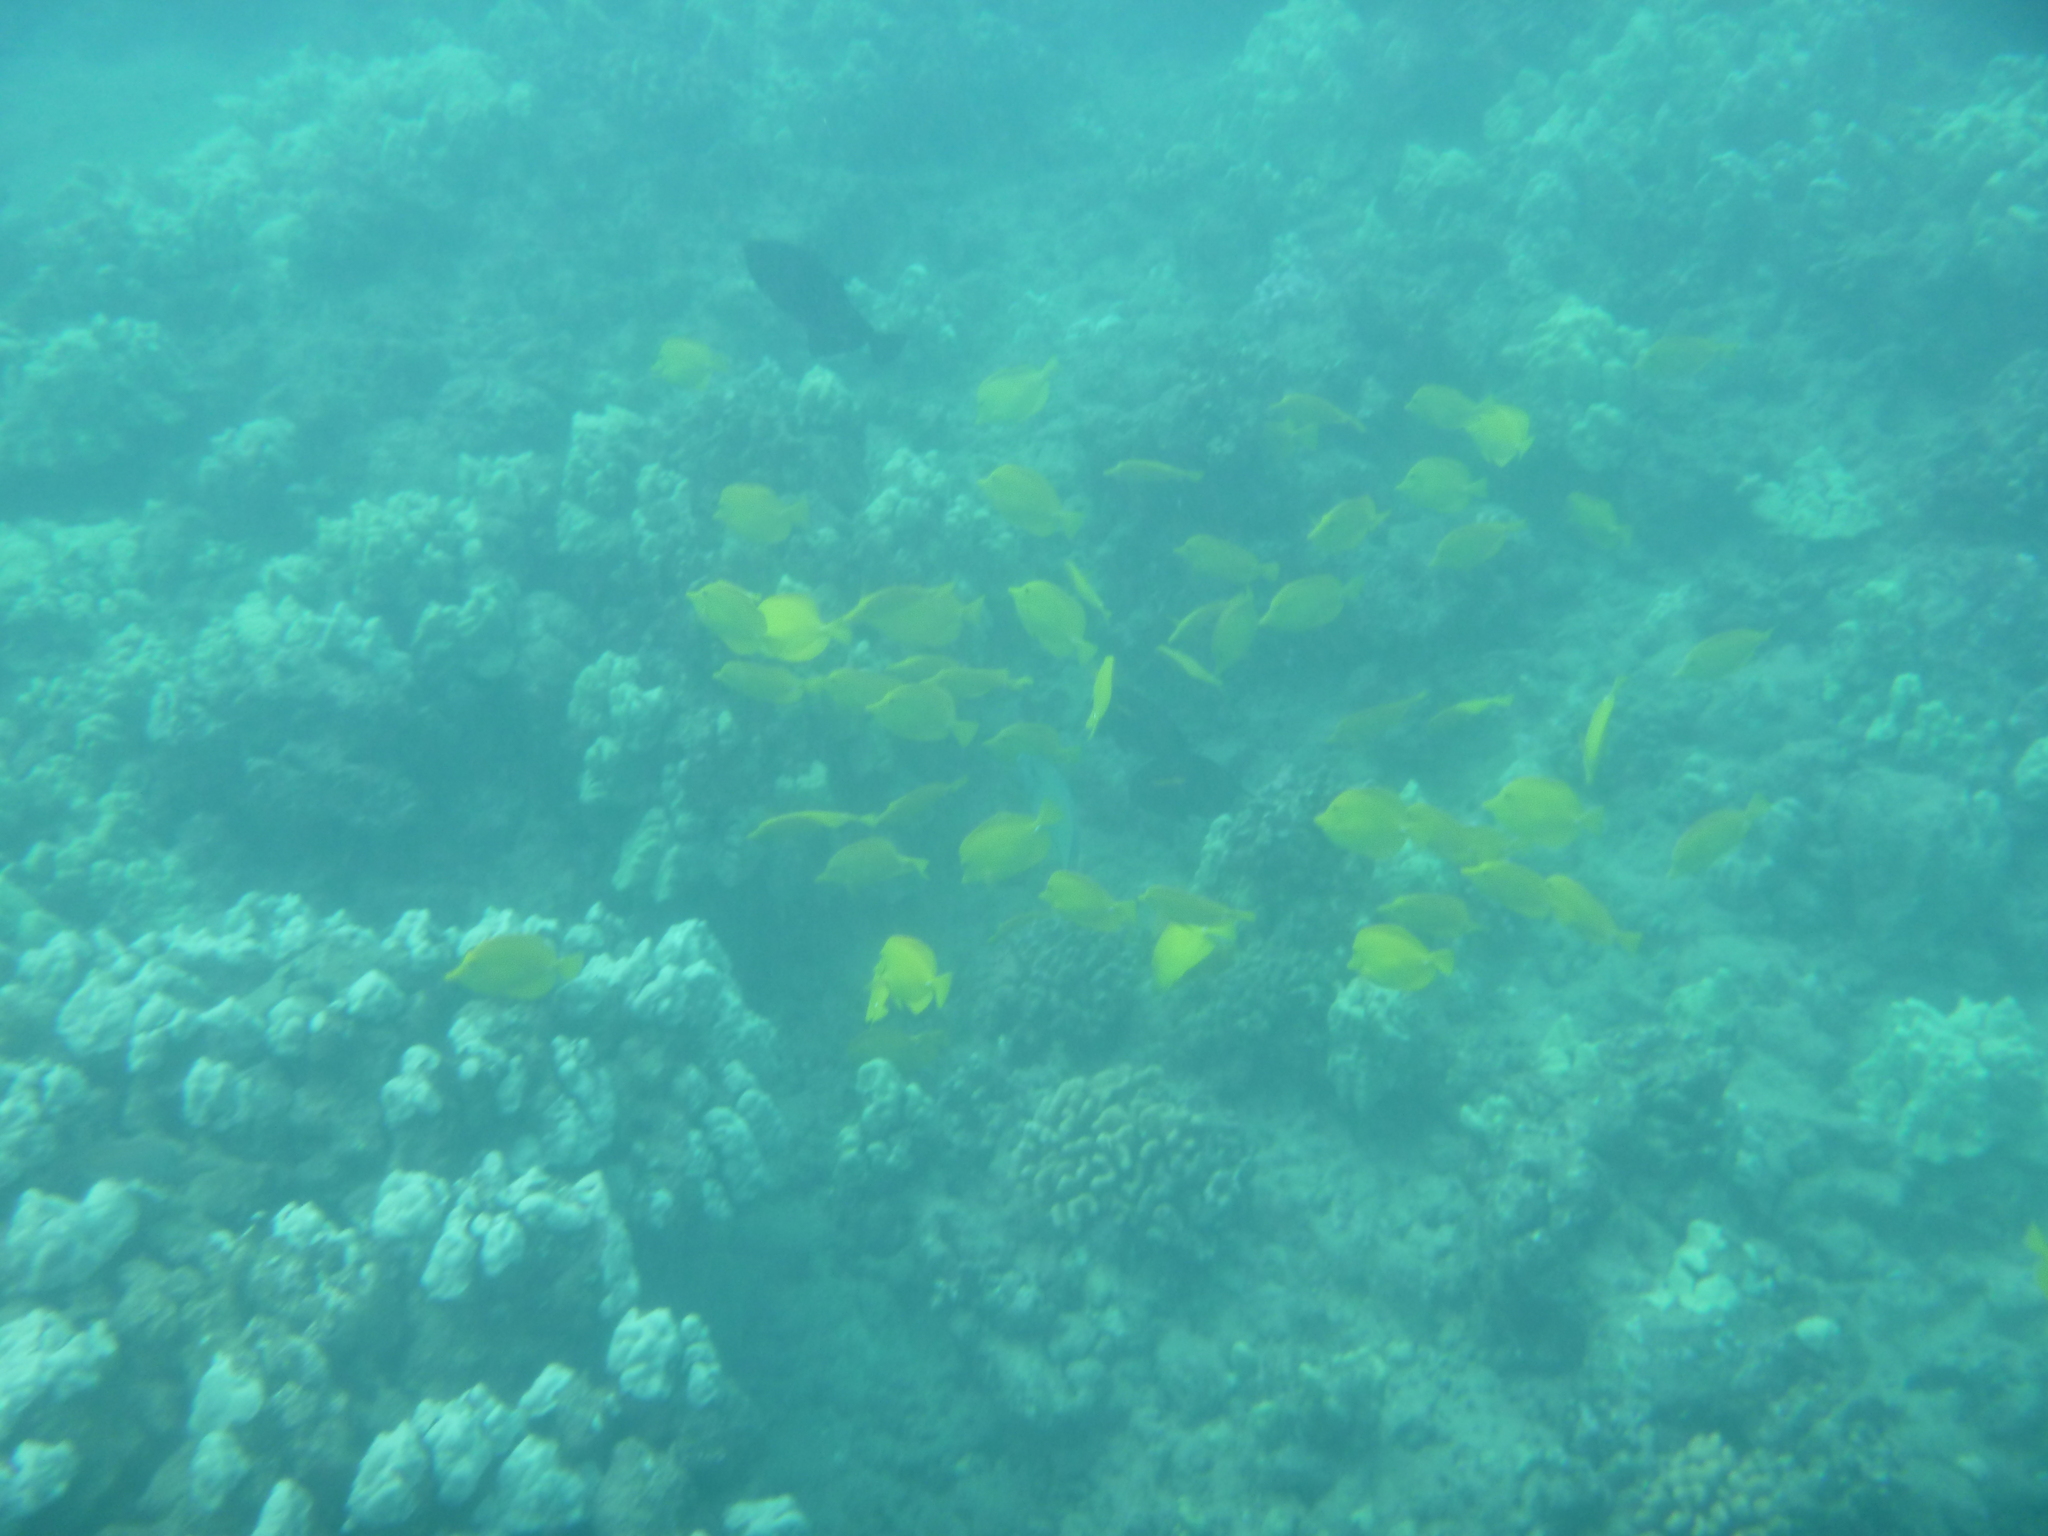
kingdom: Animalia
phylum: Chordata
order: Perciformes
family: Acanthuridae
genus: Zebrasoma
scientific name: Zebrasoma flavescens
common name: Yellow tang
